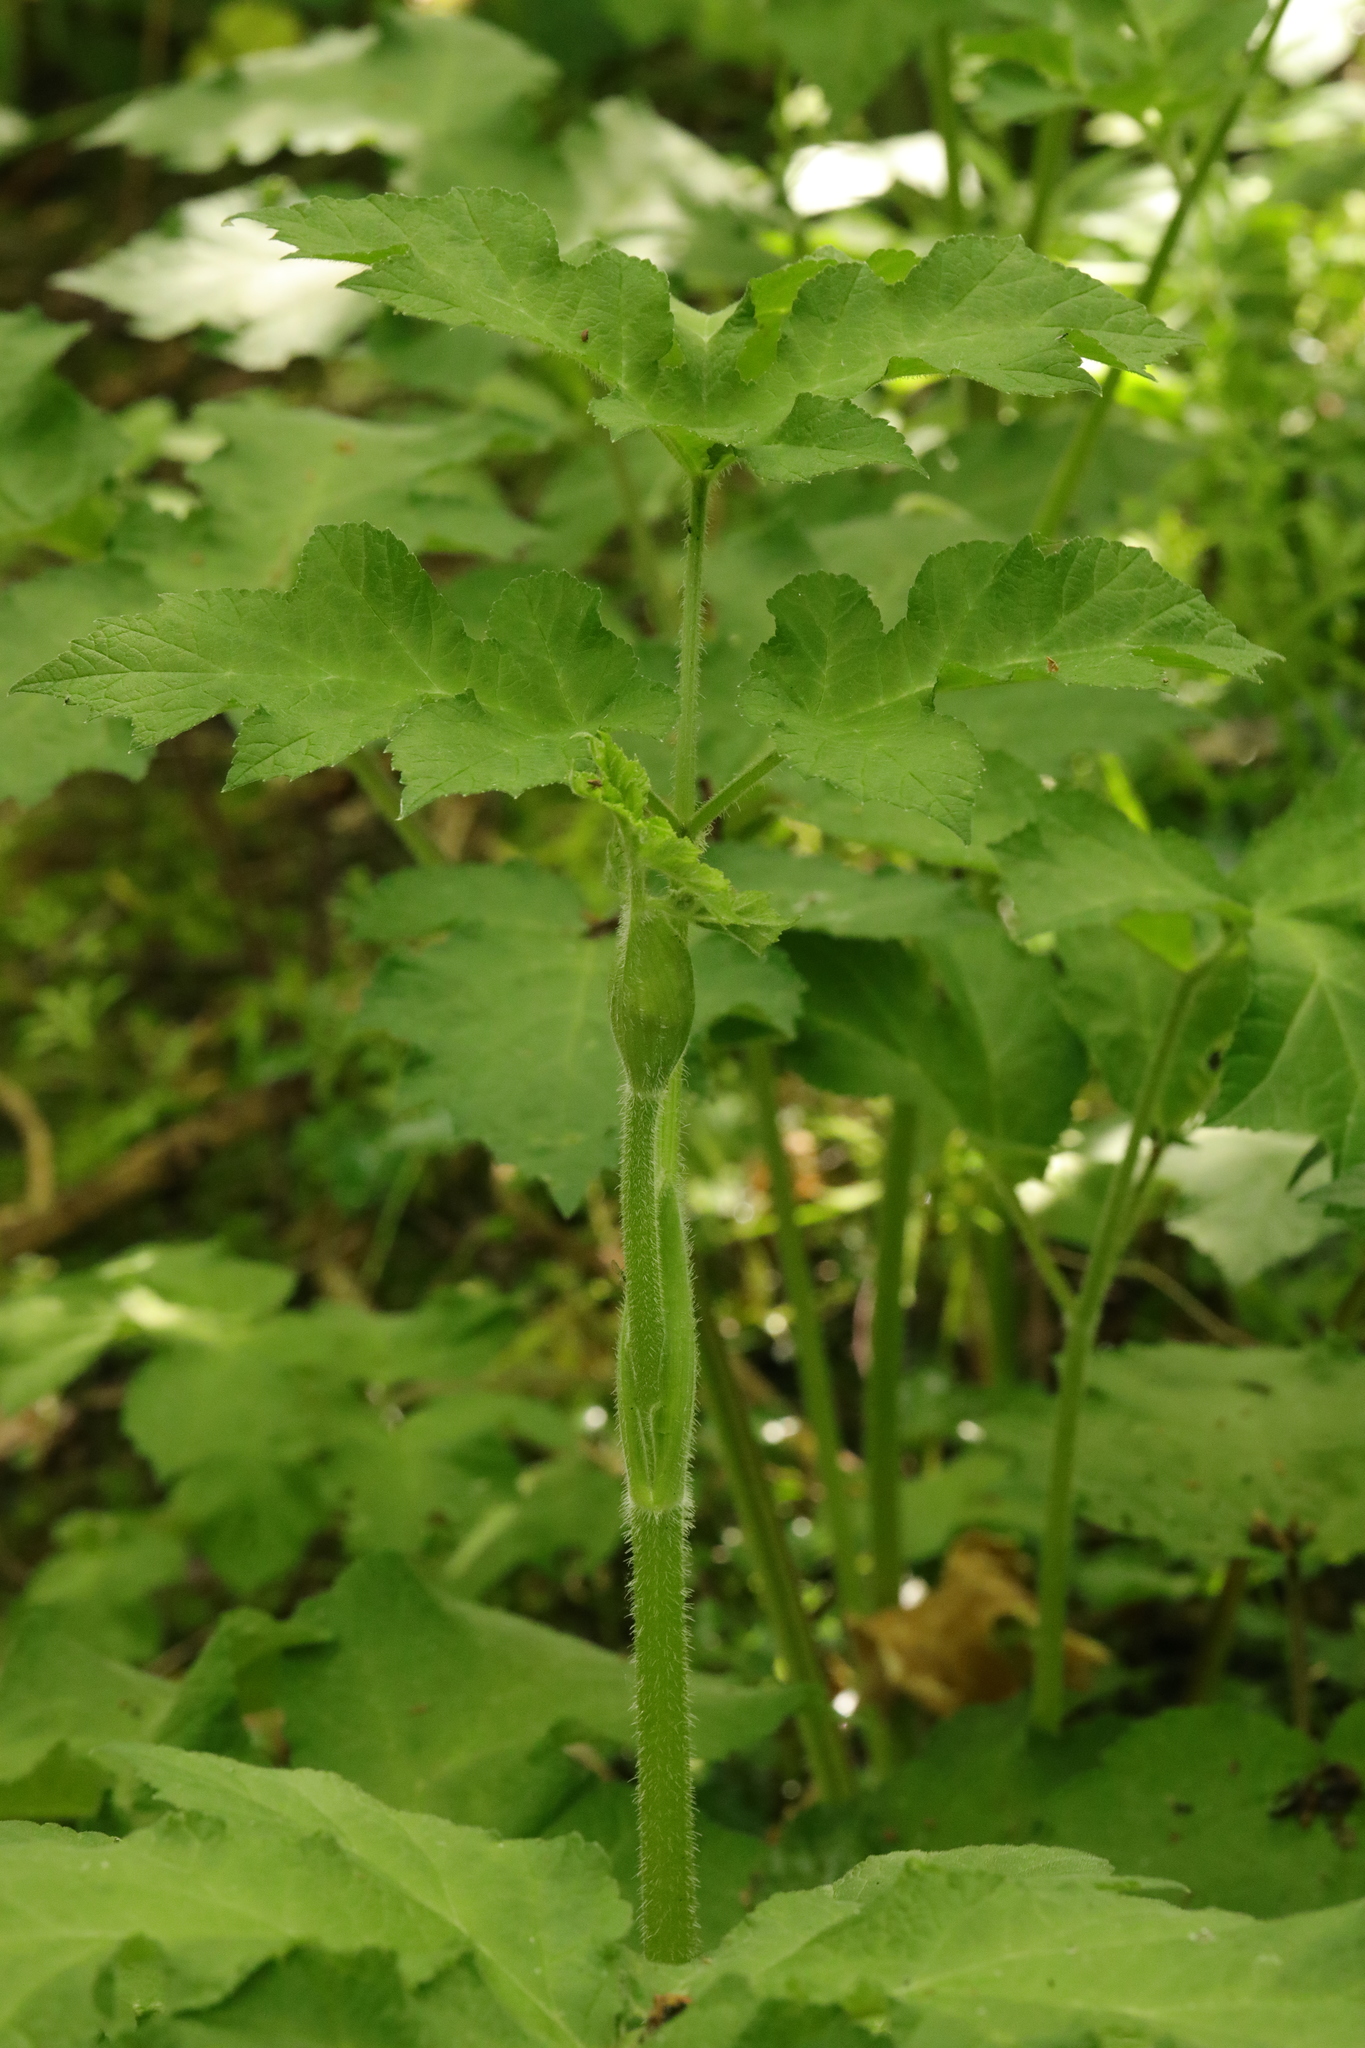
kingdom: Plantae
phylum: Tracheophyta
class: Magnoliopsida
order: Apiales
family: Apiaceae
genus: Heracleum
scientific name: Heracleum sphondylium
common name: Hogweed
